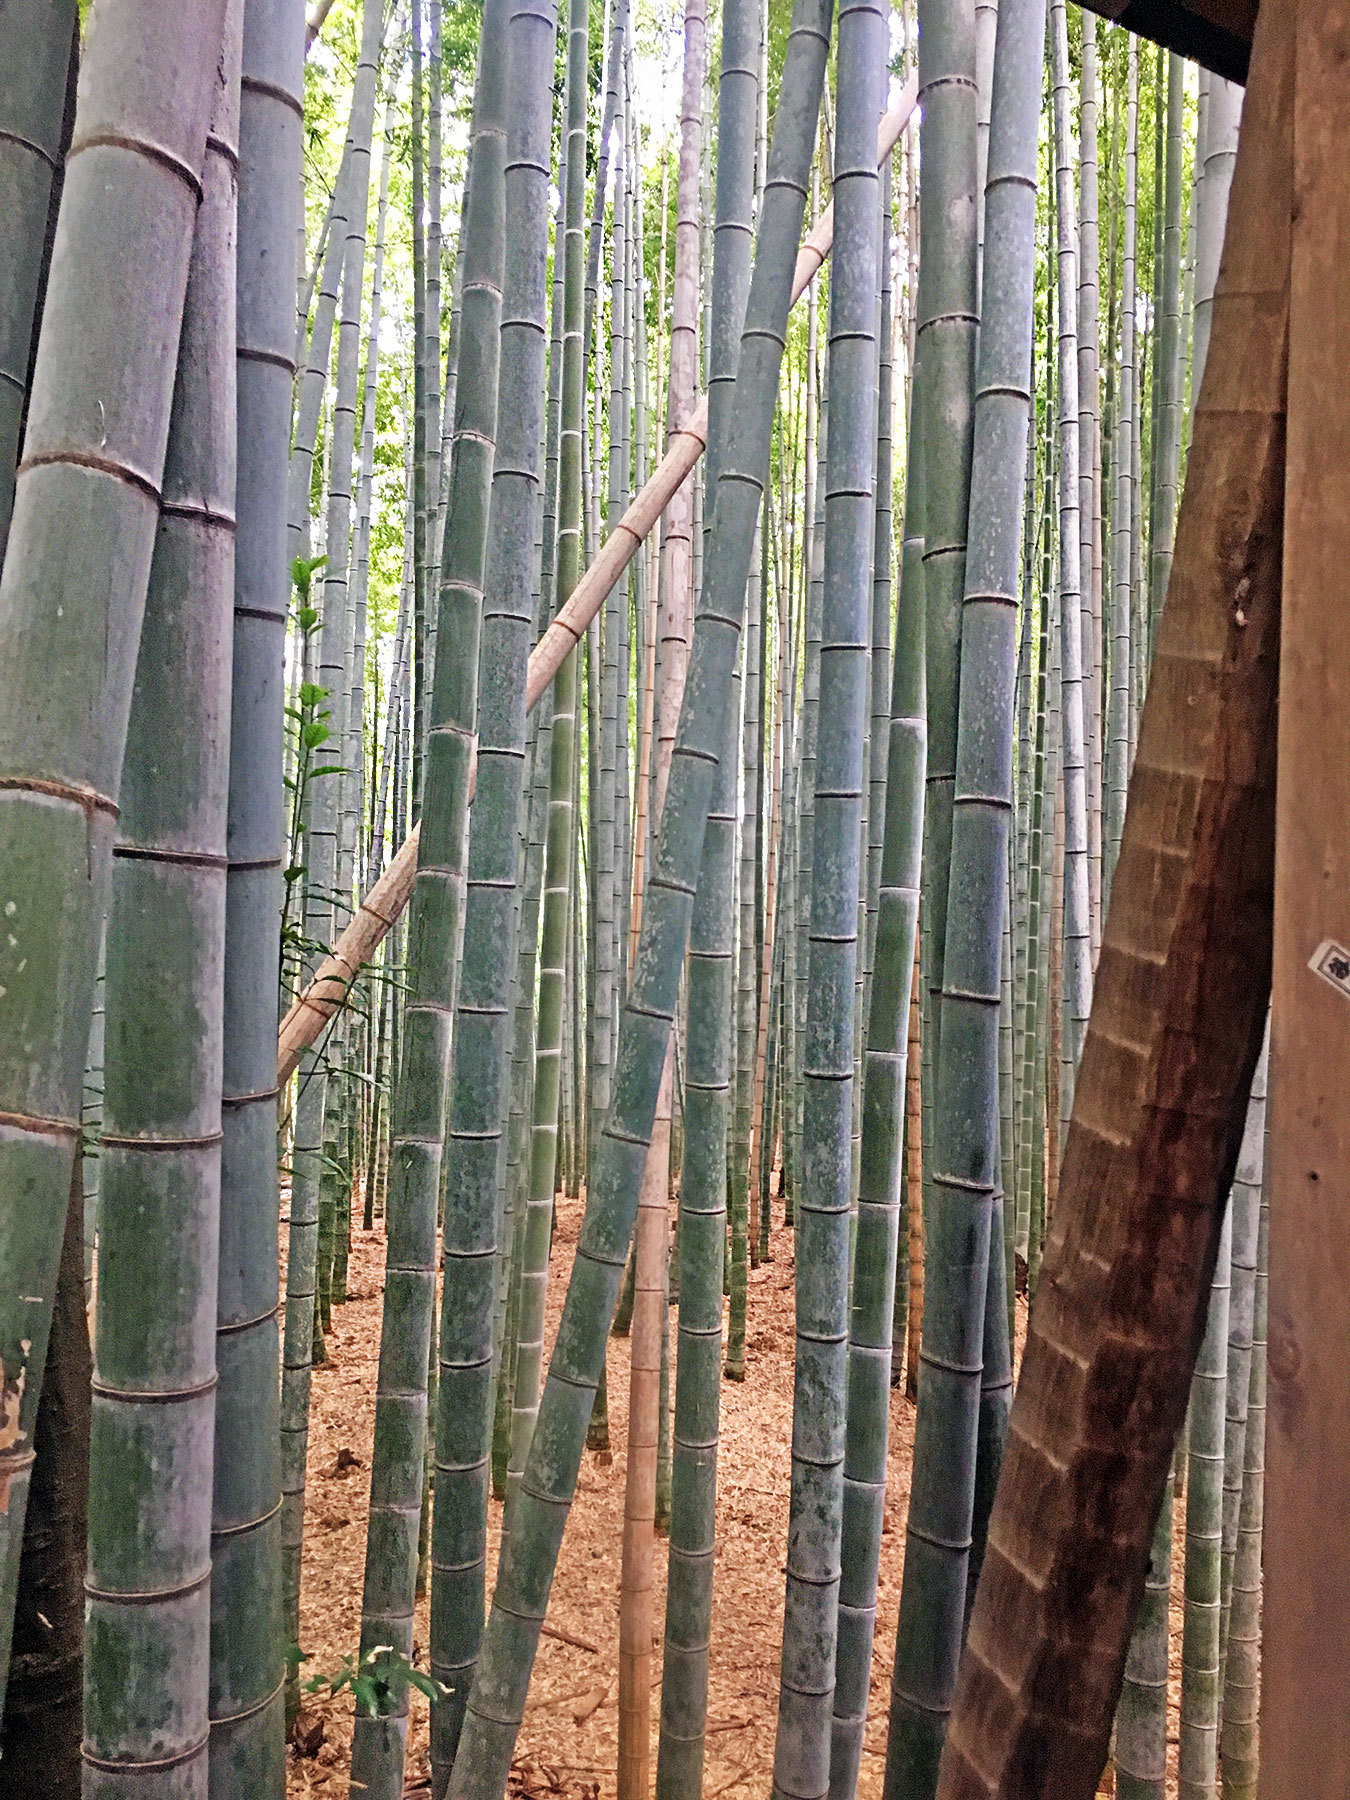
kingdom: Plantae
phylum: Tracheophyta
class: Liliopsida
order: Poales
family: Poaceae
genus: Phyllostachys
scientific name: Phyllostachys edulis
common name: Tortoise shell bamboo
